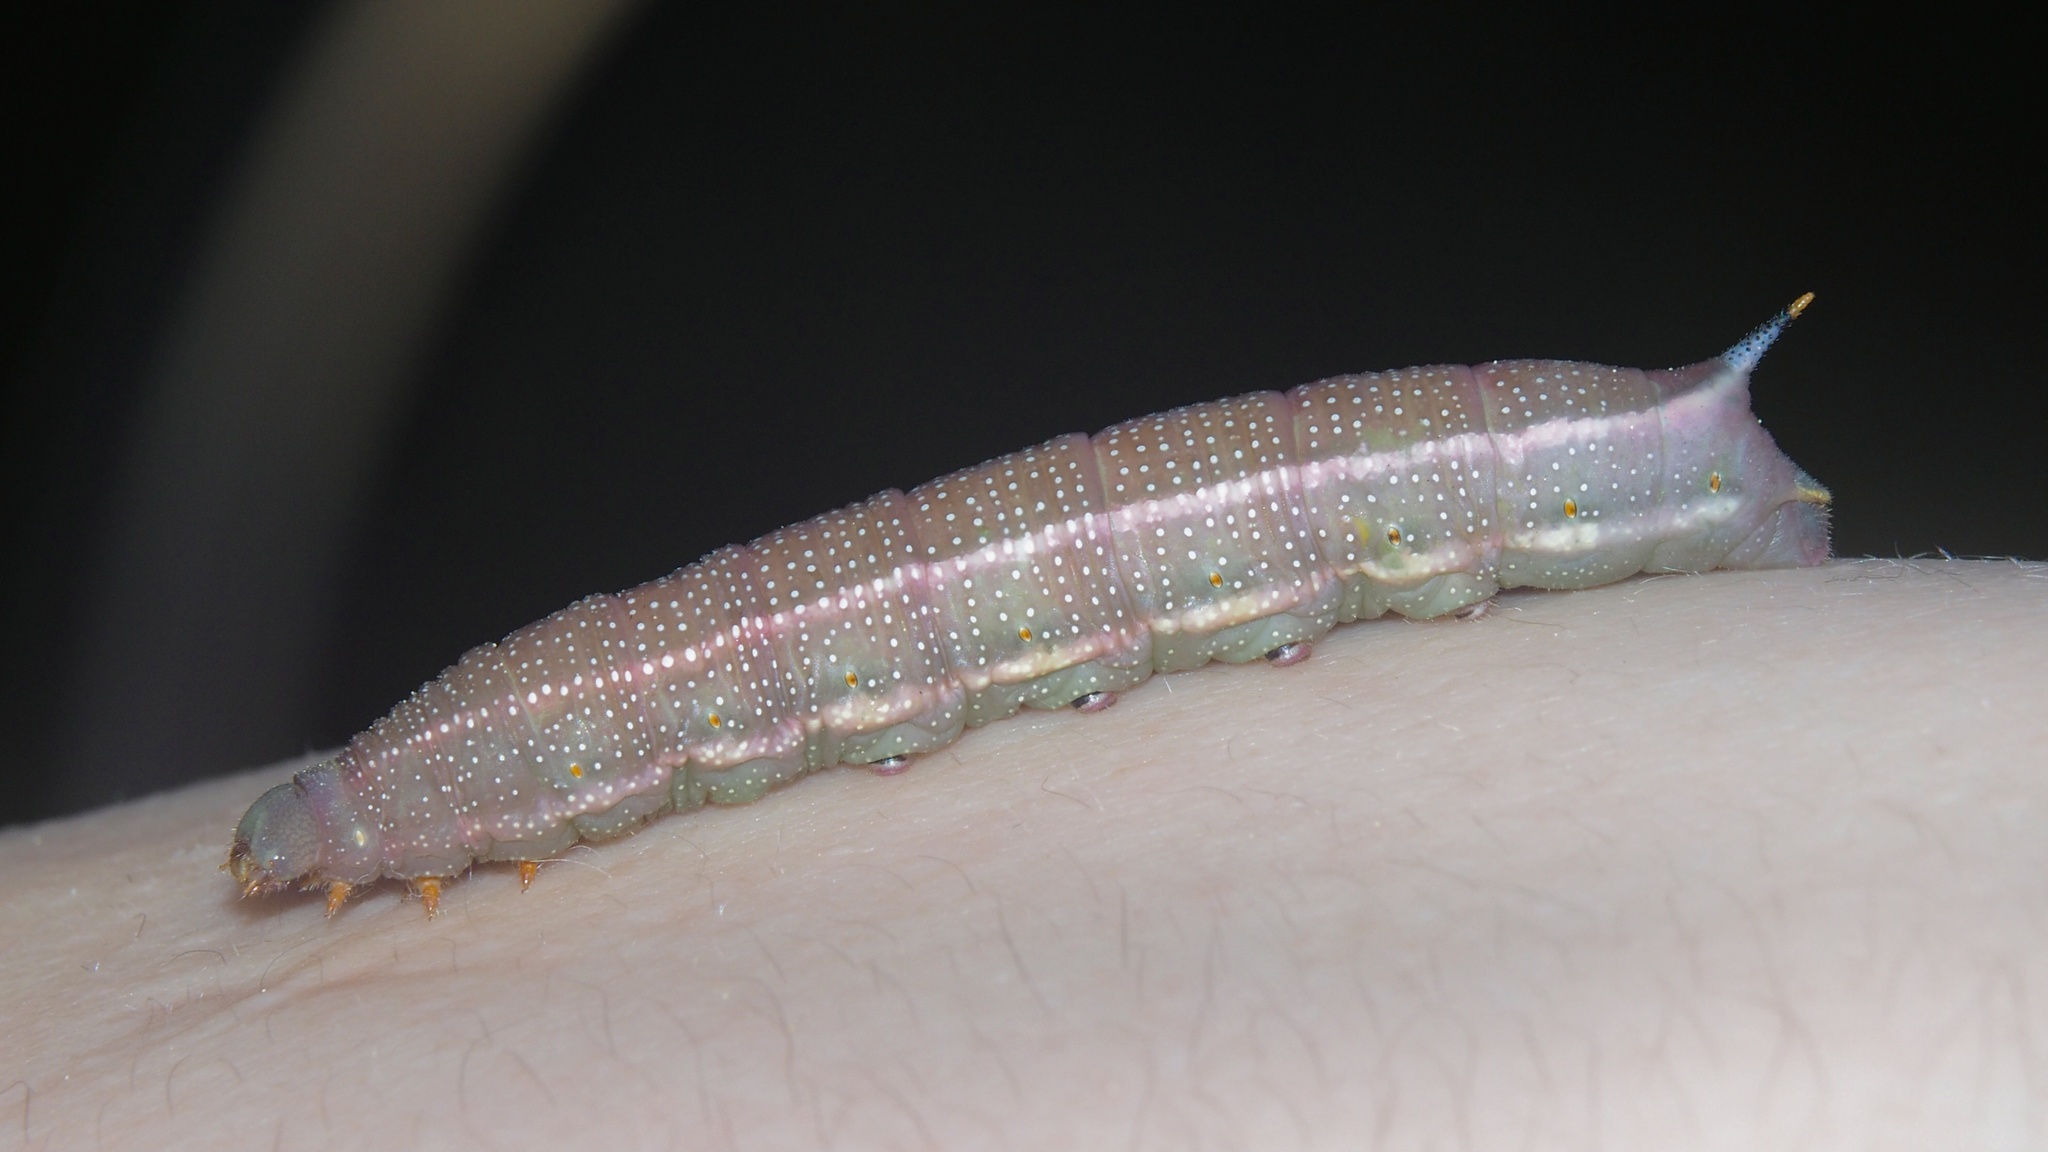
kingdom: Animalia
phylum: Arthropoda
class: Insecta
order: Lepidoptera
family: Sphingidae
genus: Macroglossum
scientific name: Macroglossum stellatarum
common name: Humming-bird hawk-moth
